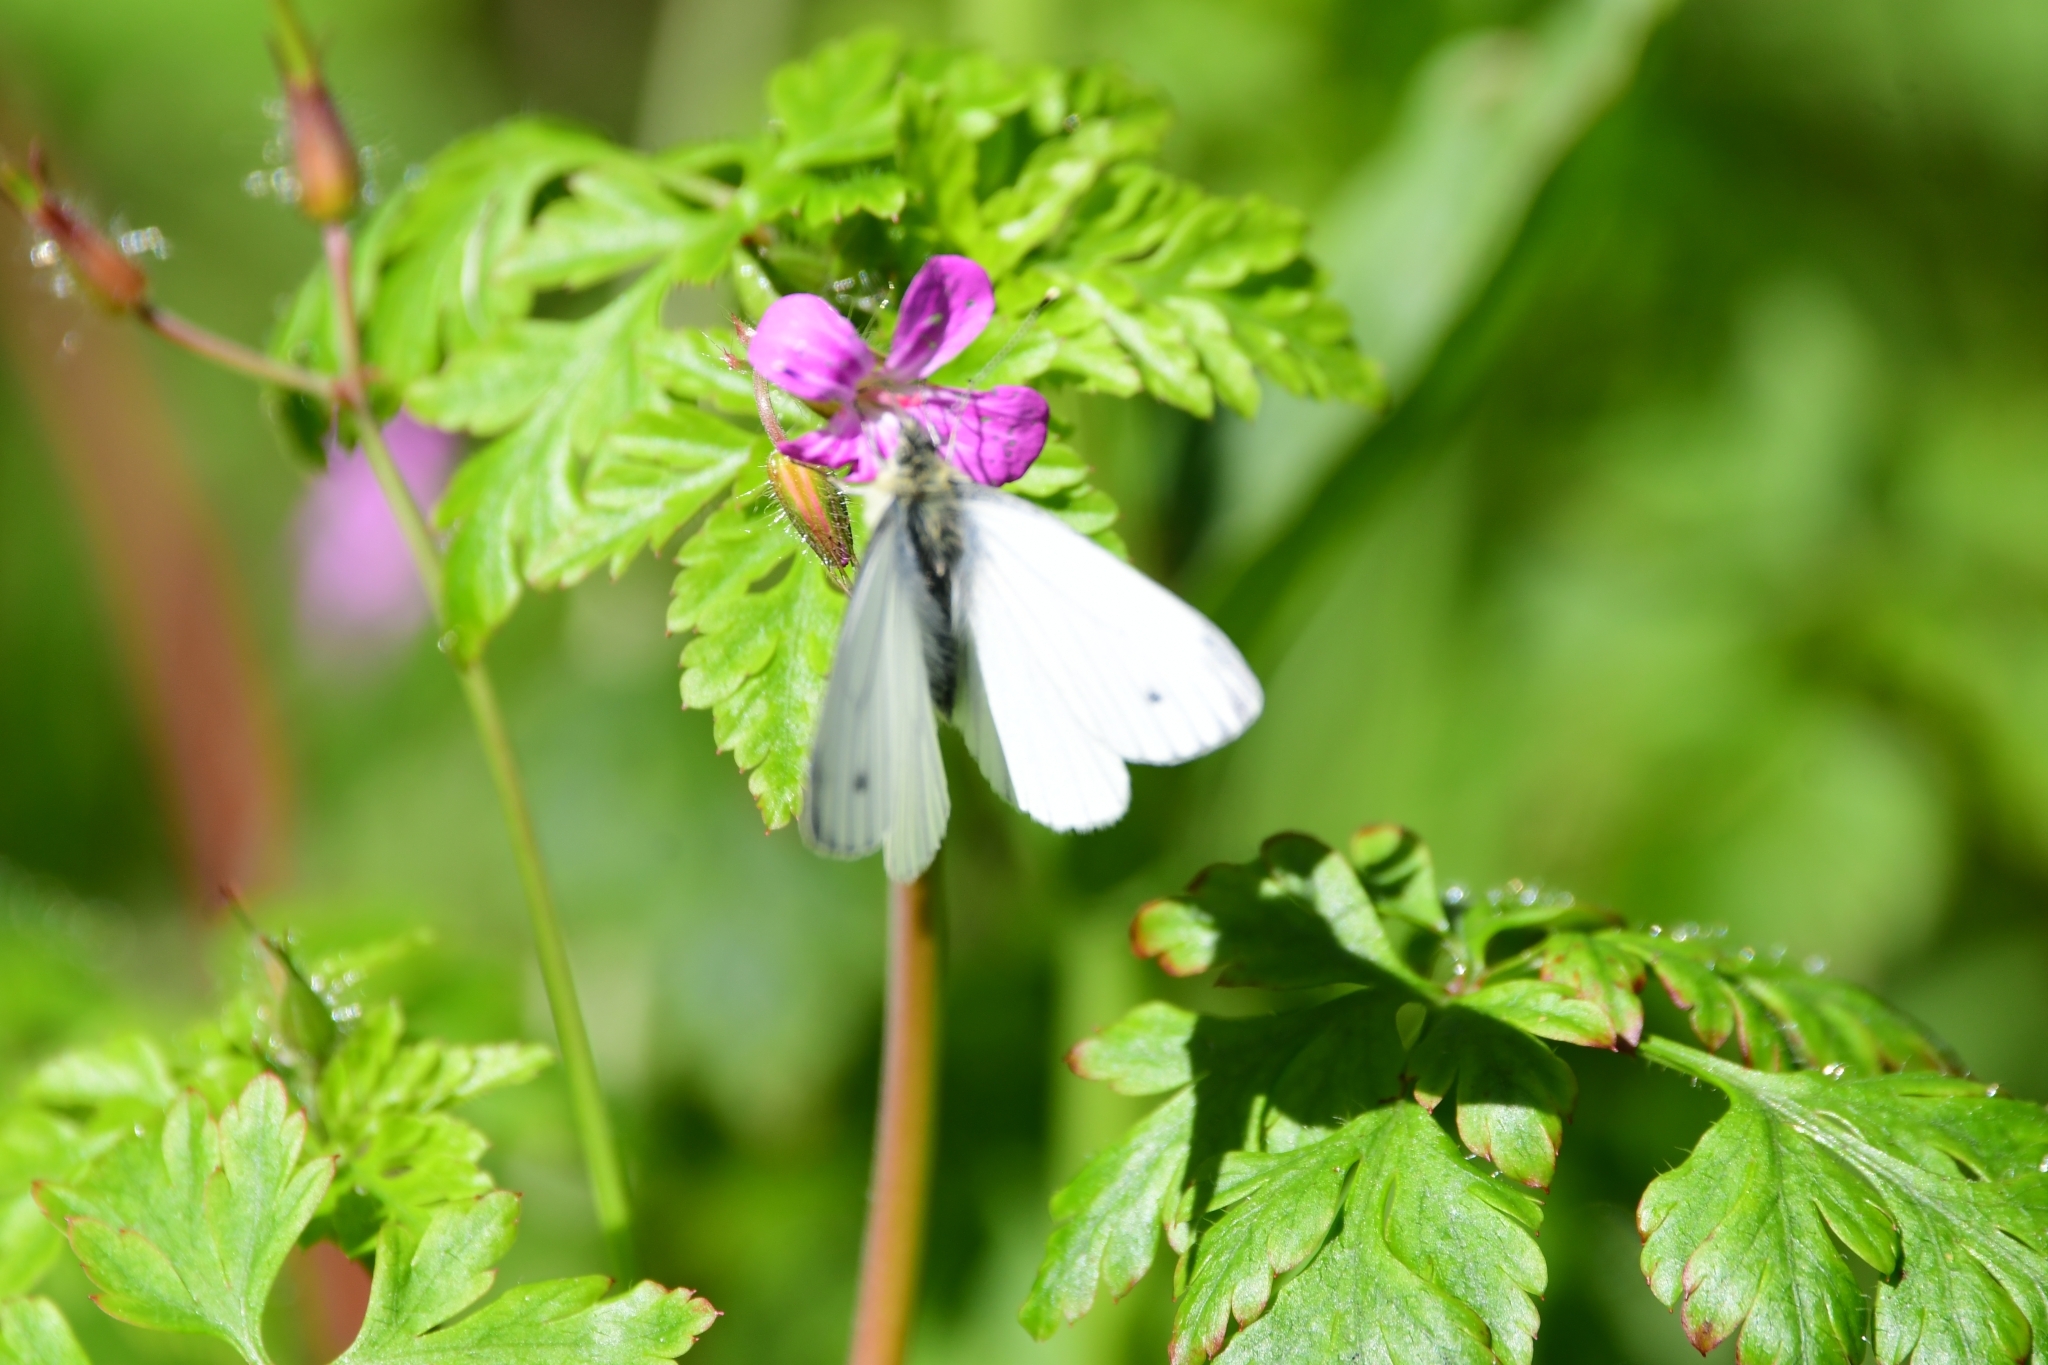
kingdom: Animalia
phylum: Arthropoda
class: Insecta
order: Lepidoptera
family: Pieridae
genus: Pieris
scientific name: Pieris napi
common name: Green-veined white
